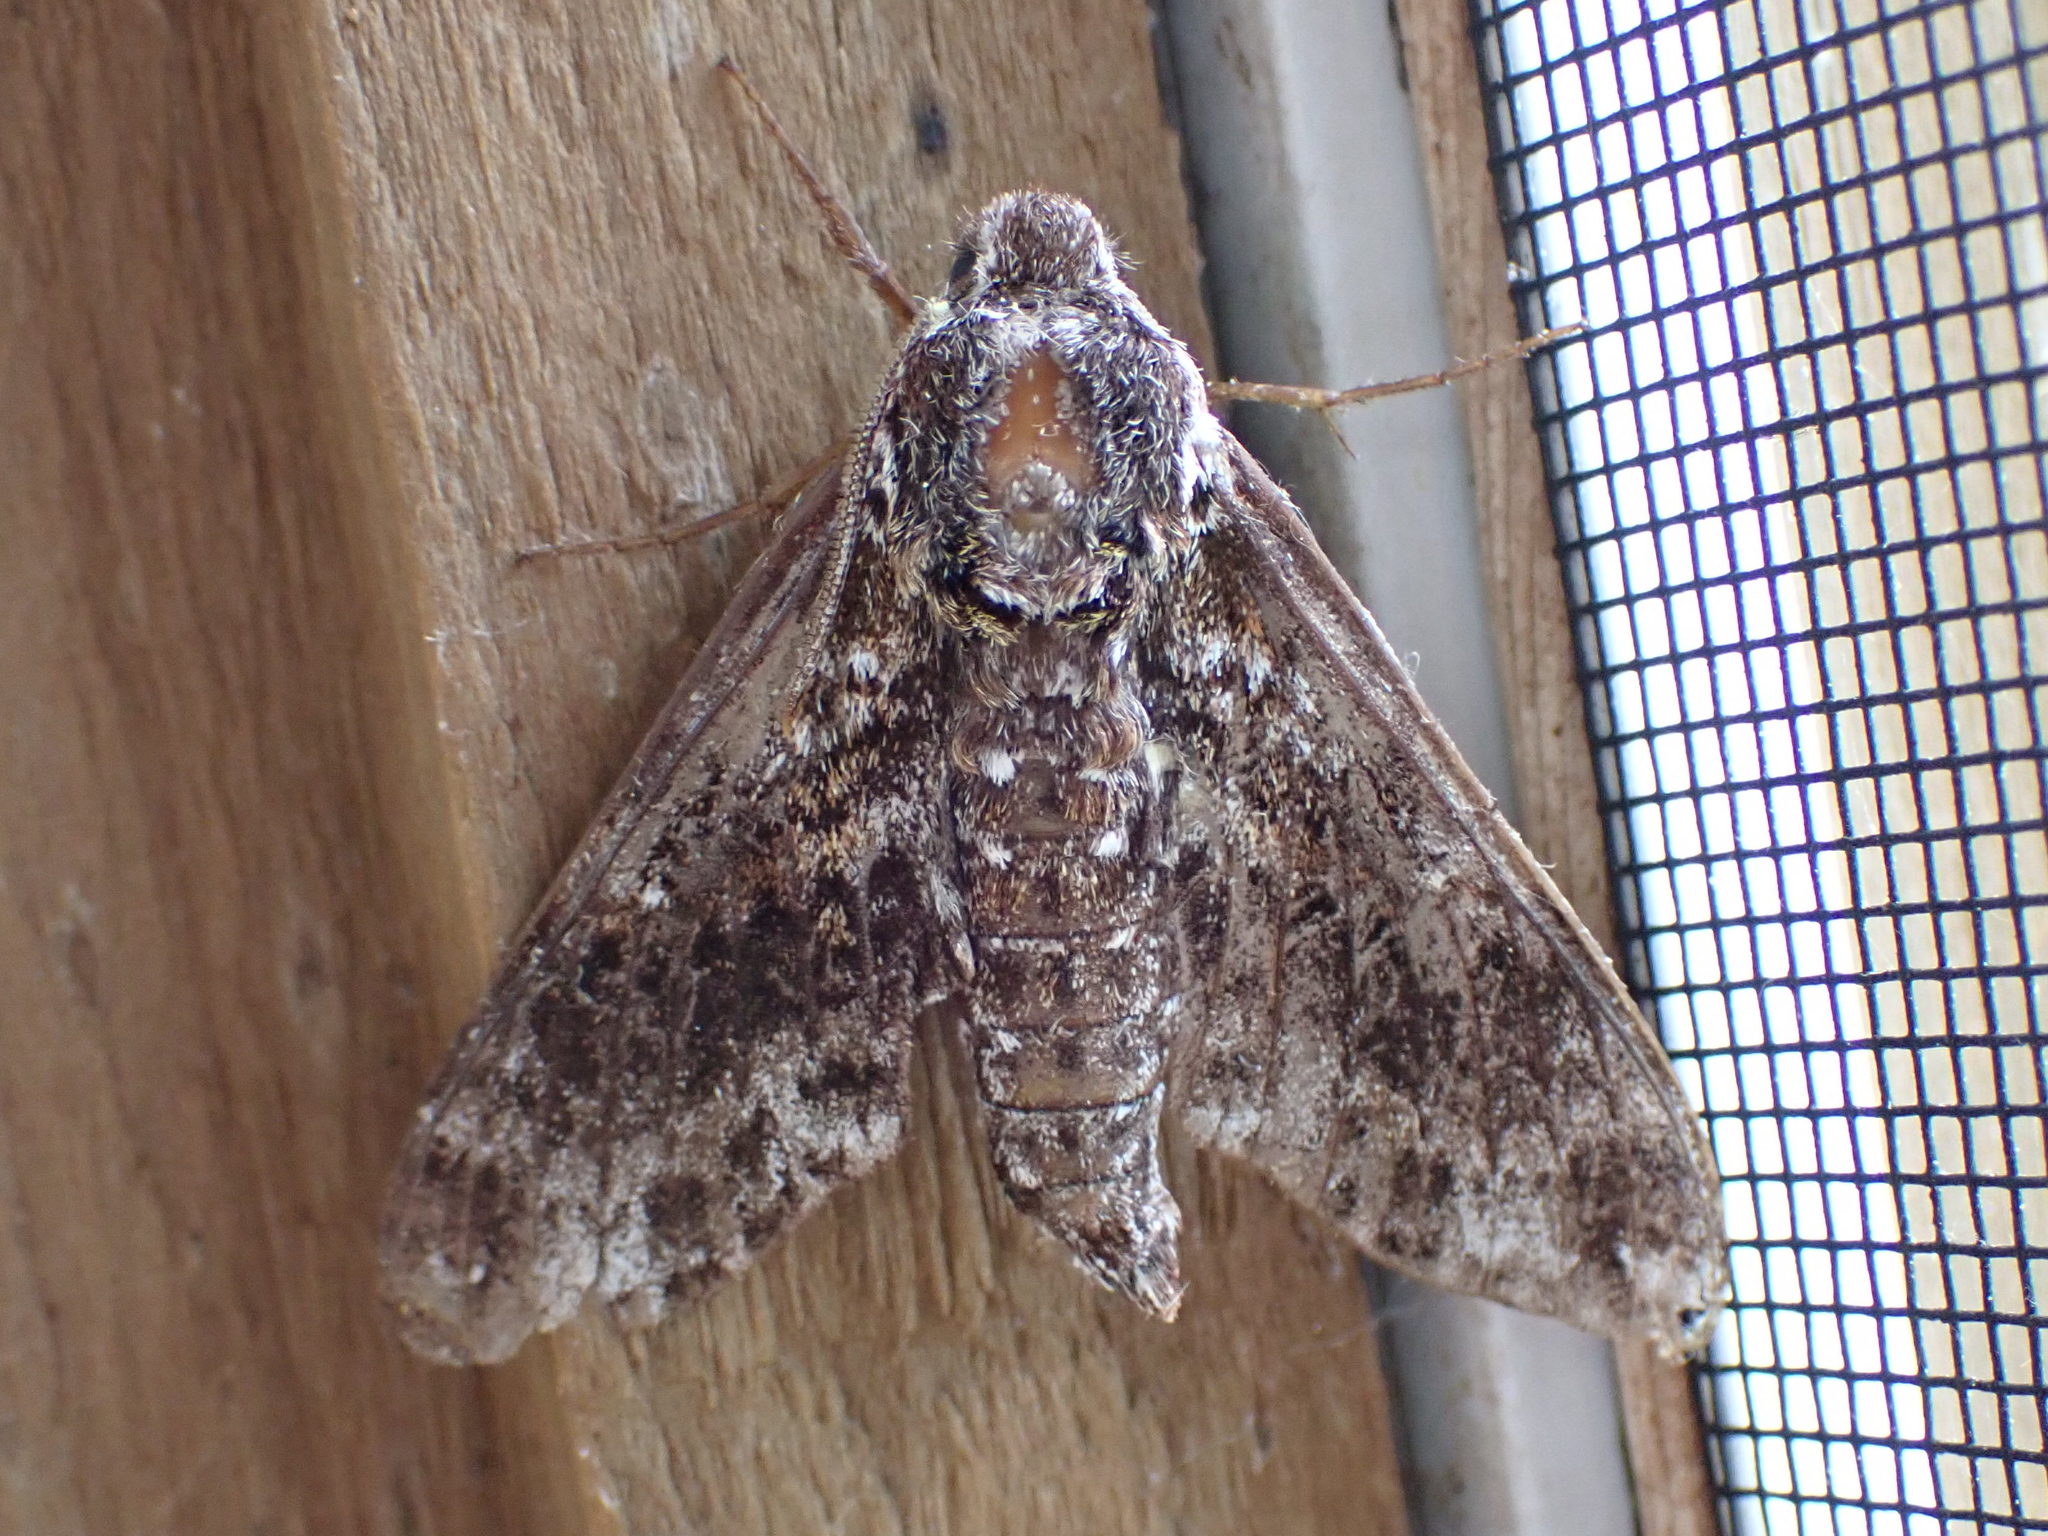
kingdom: Animalia
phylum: Arthropoda
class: Insecta
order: Lepidoptera
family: Sphingidae
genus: Dolba
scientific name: Dolba hyloeus
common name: Pawpaw sphinx
